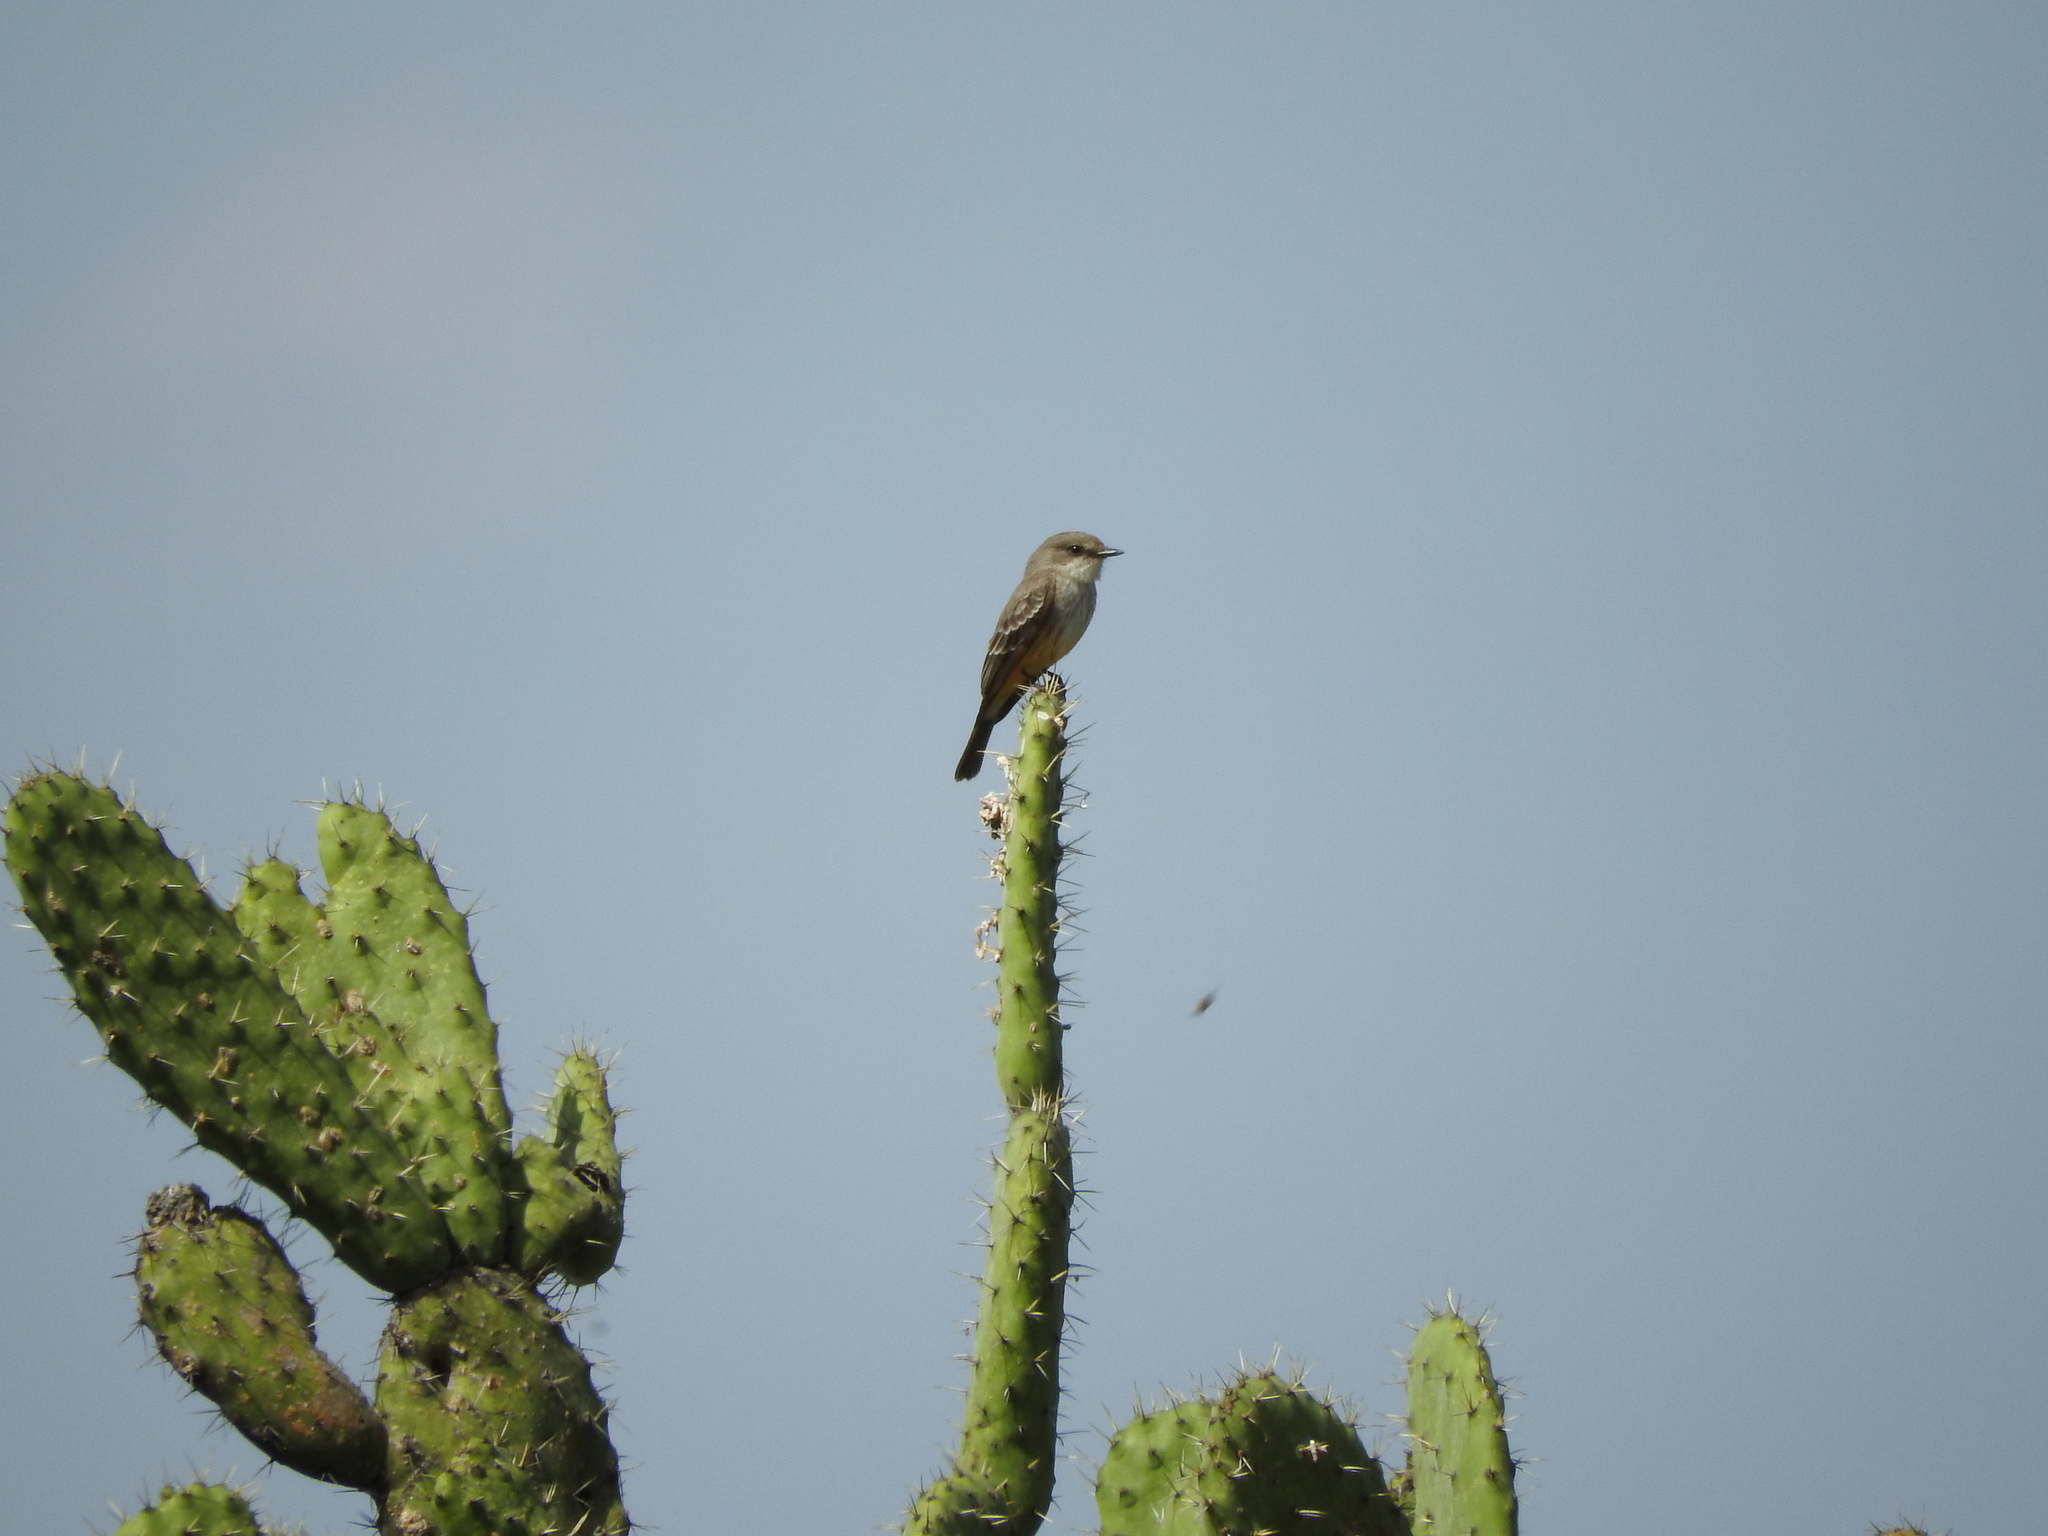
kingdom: Animalia
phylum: Chordata
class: Aves
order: Passeriformes
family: Tyrannidae
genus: Pyrocephalus
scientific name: Pyrocephalus rubinus
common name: Vermilion flycatcher
